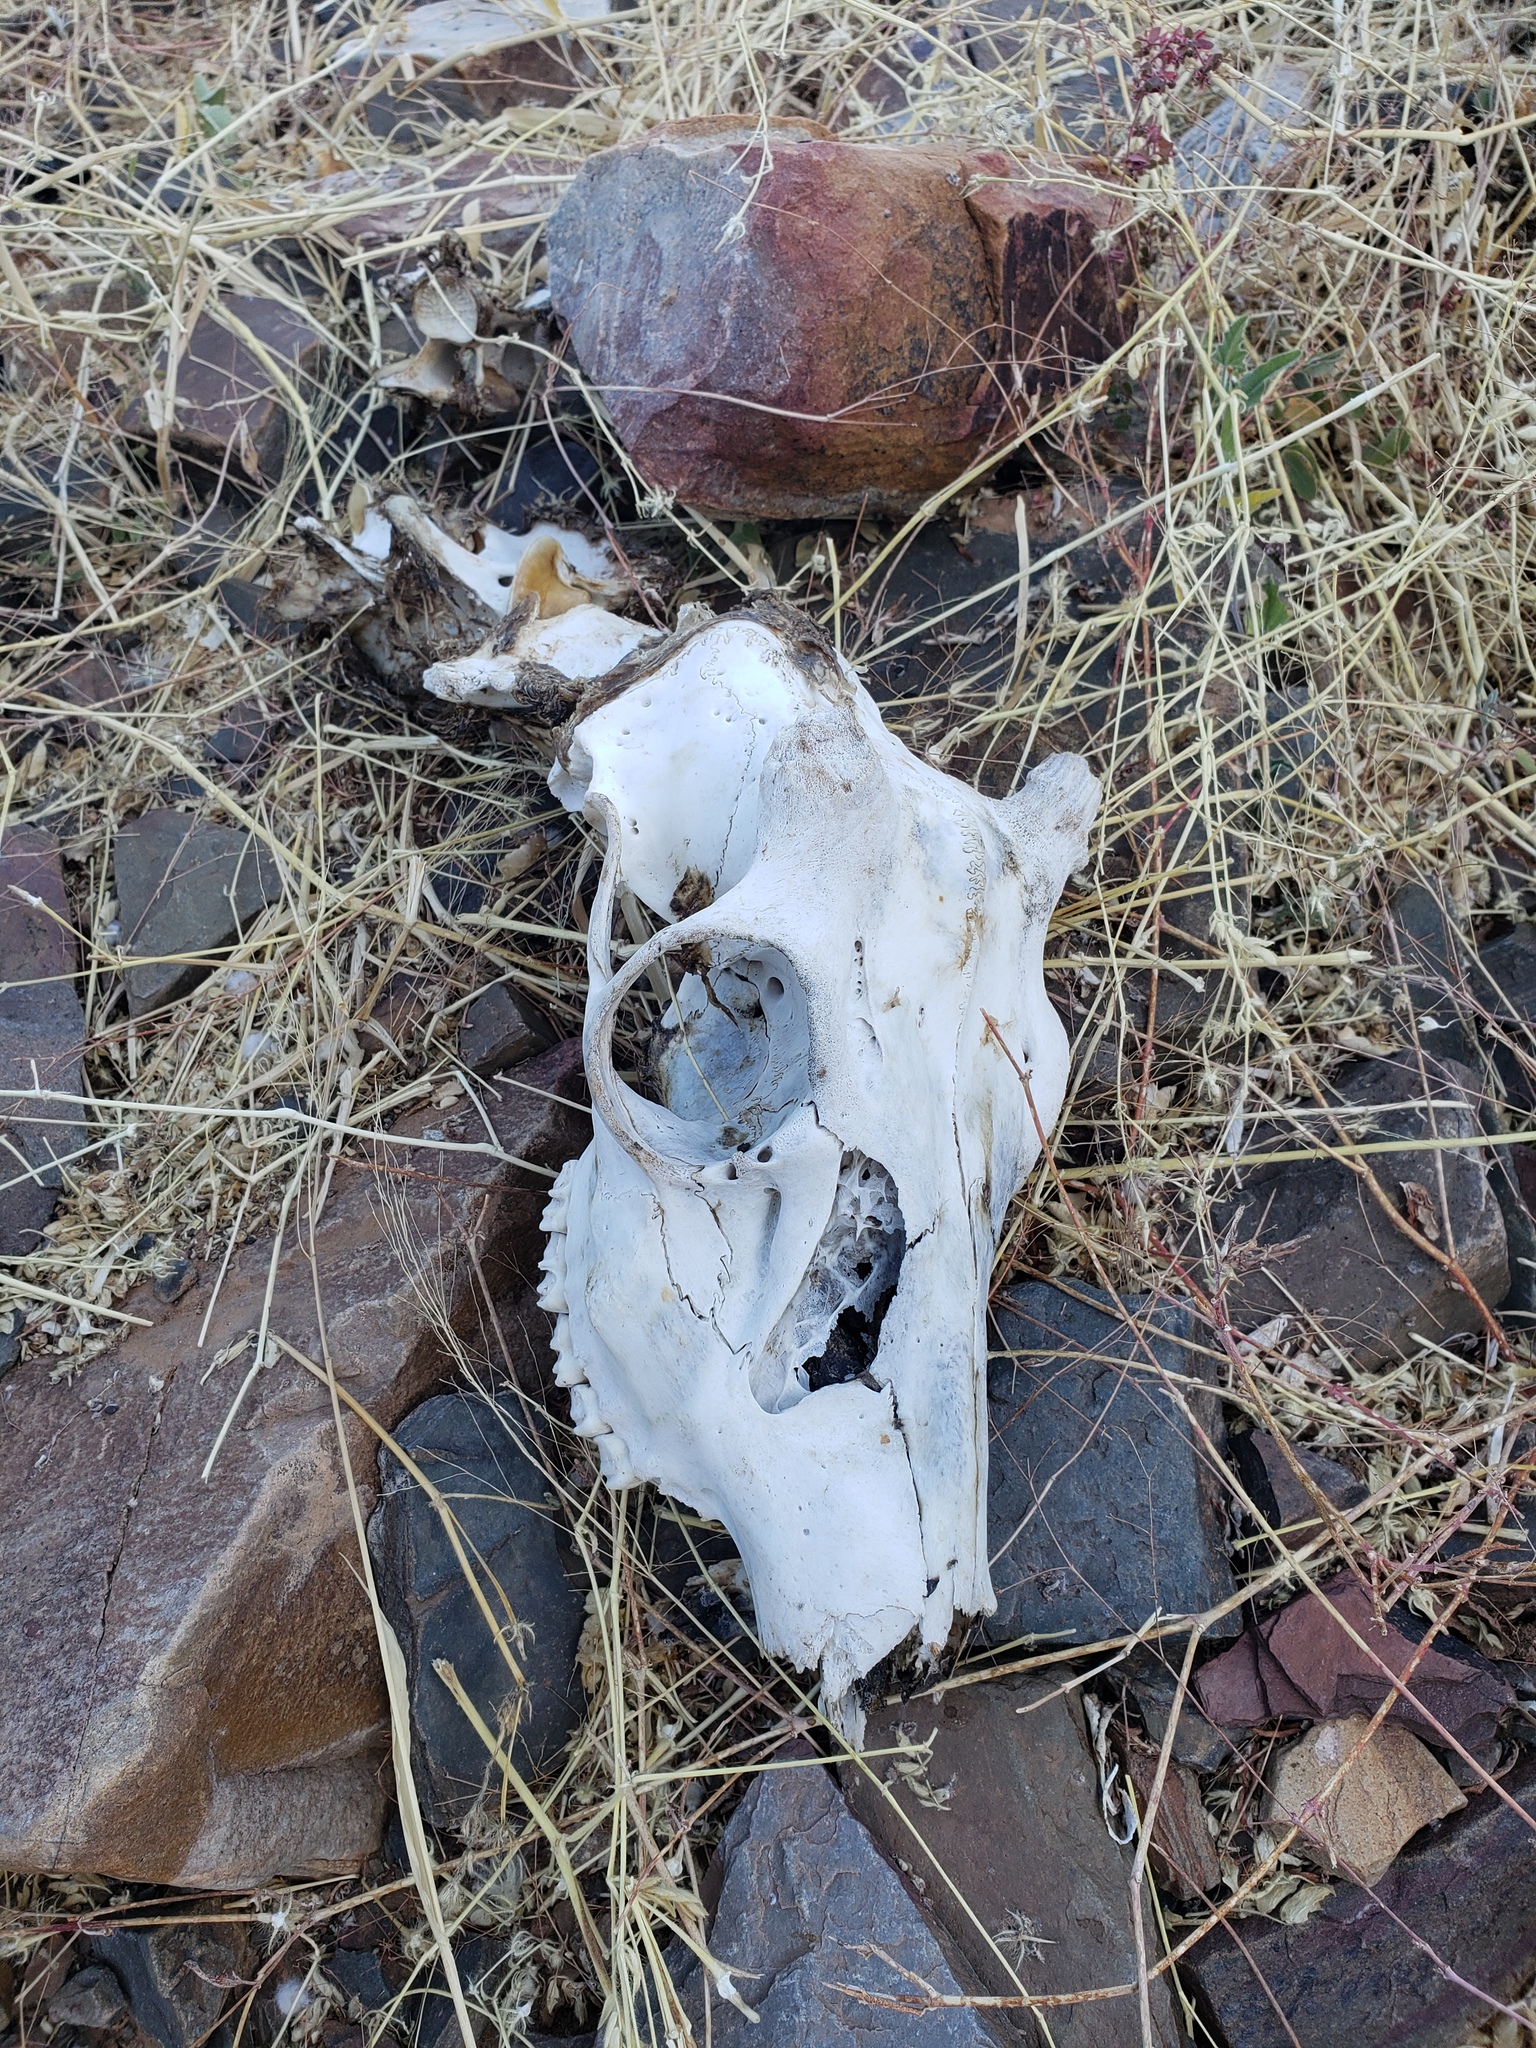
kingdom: Animalia
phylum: Chordata
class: Mammalia
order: Artiodactyla
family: Cervidae
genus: Odocoileus
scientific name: Odocoileus hemionus
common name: Mule deer
